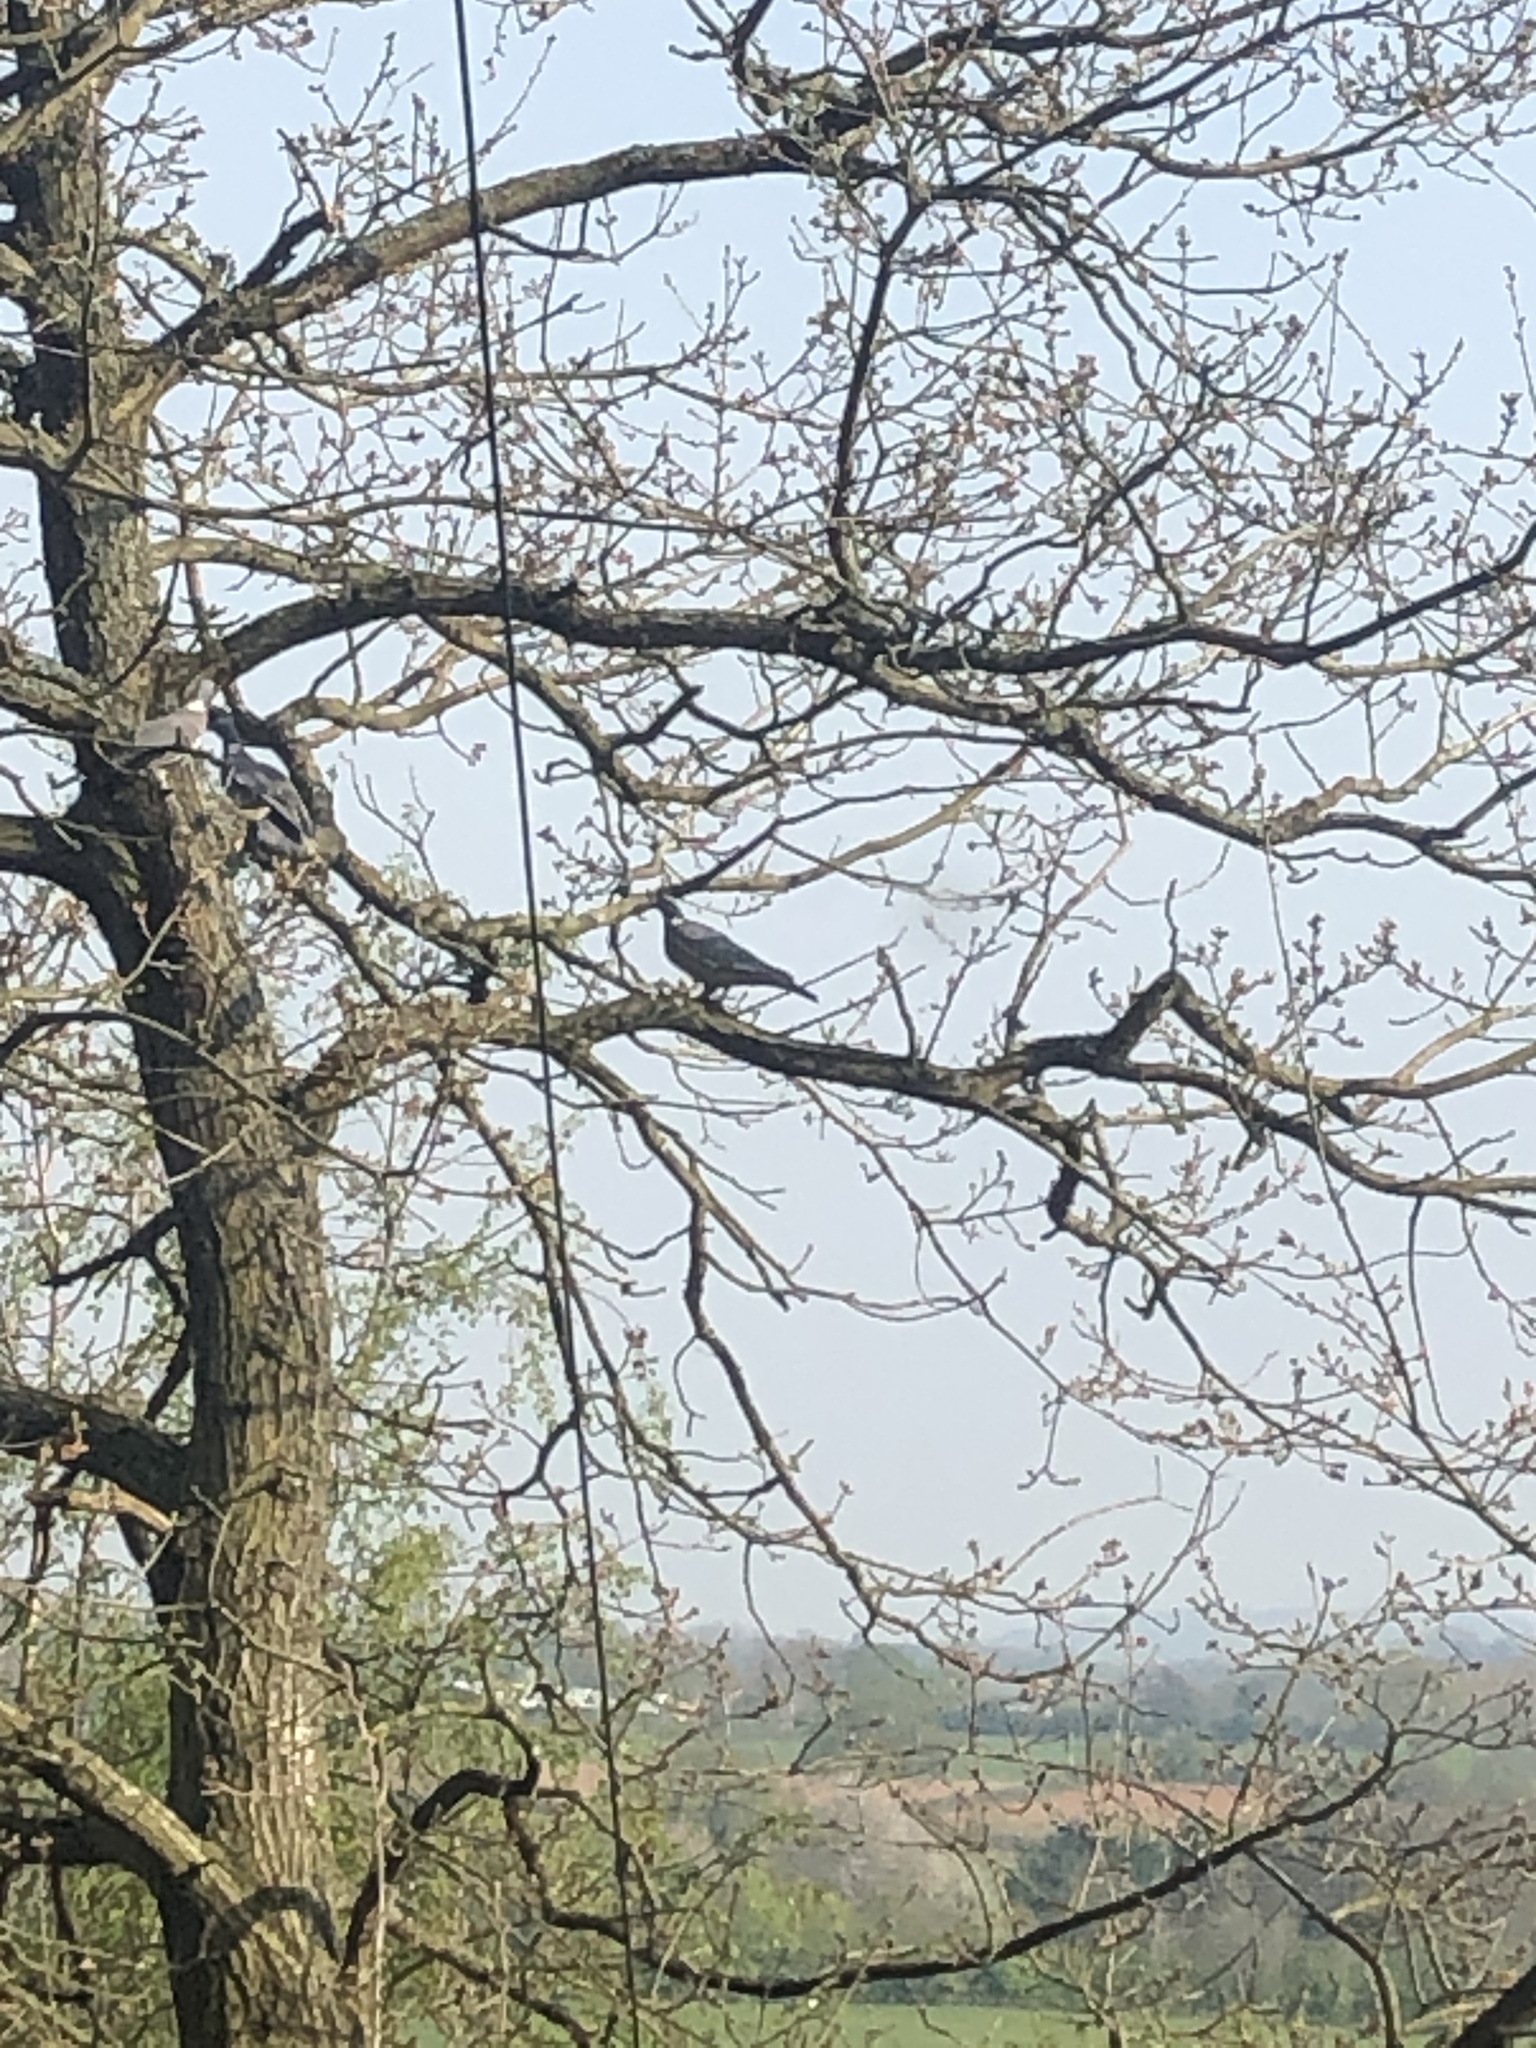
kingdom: Animalia
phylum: Chordata
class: Aves
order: Columbiformes
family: Columbidae
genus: Columba
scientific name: Columba palumbus
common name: Common wood pigeon
